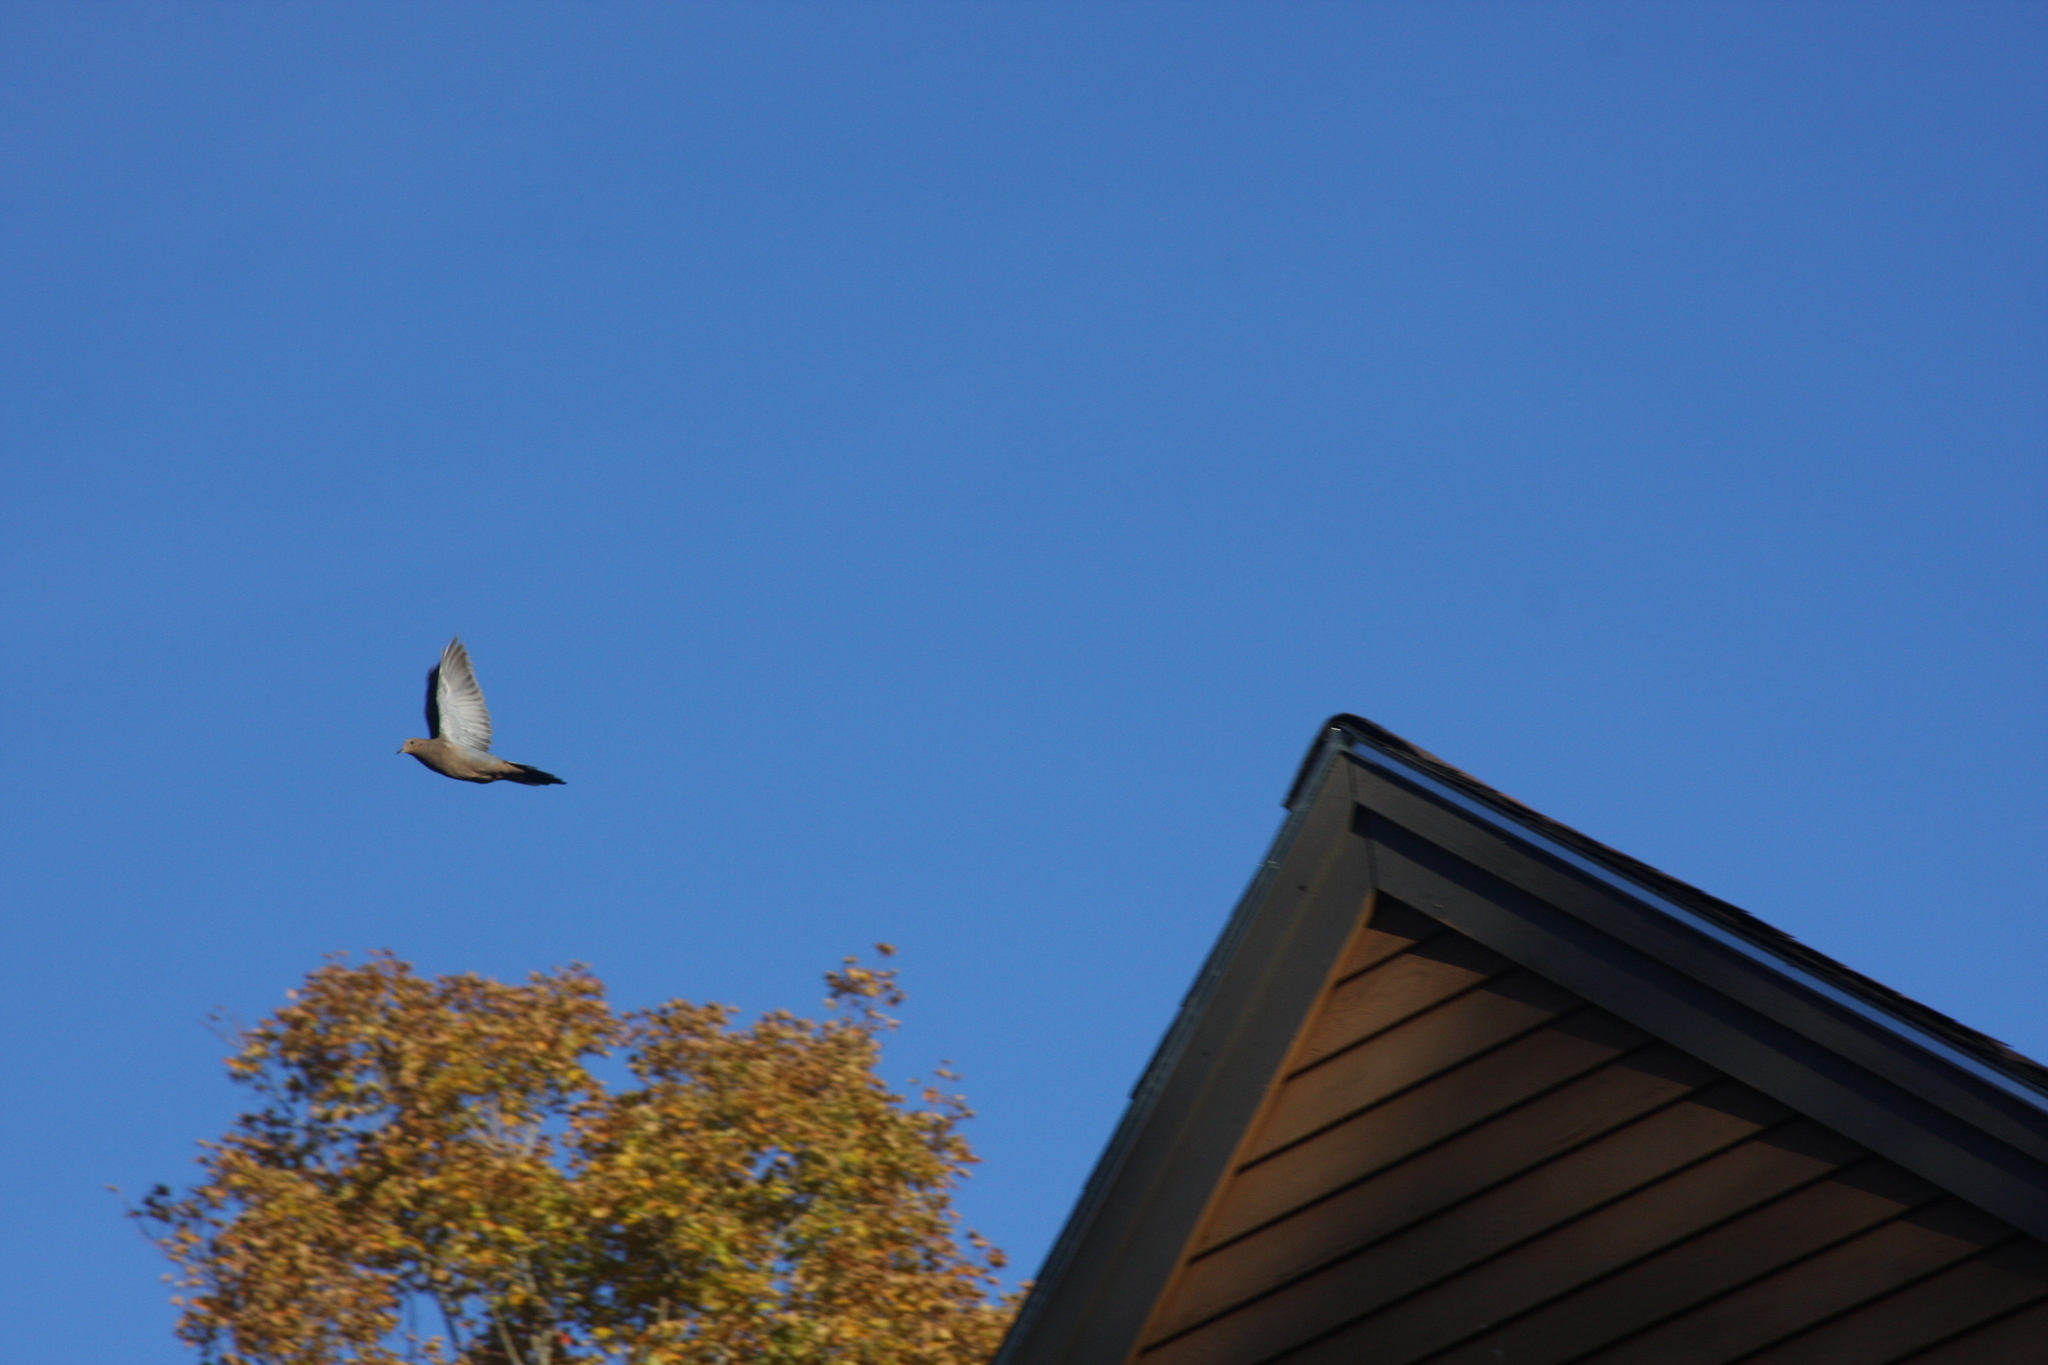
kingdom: Animalia
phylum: Chordata
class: Aves
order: Columbiformes
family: Columbidae
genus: Zenaida
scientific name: Zenaida macroura
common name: Mourning dove
